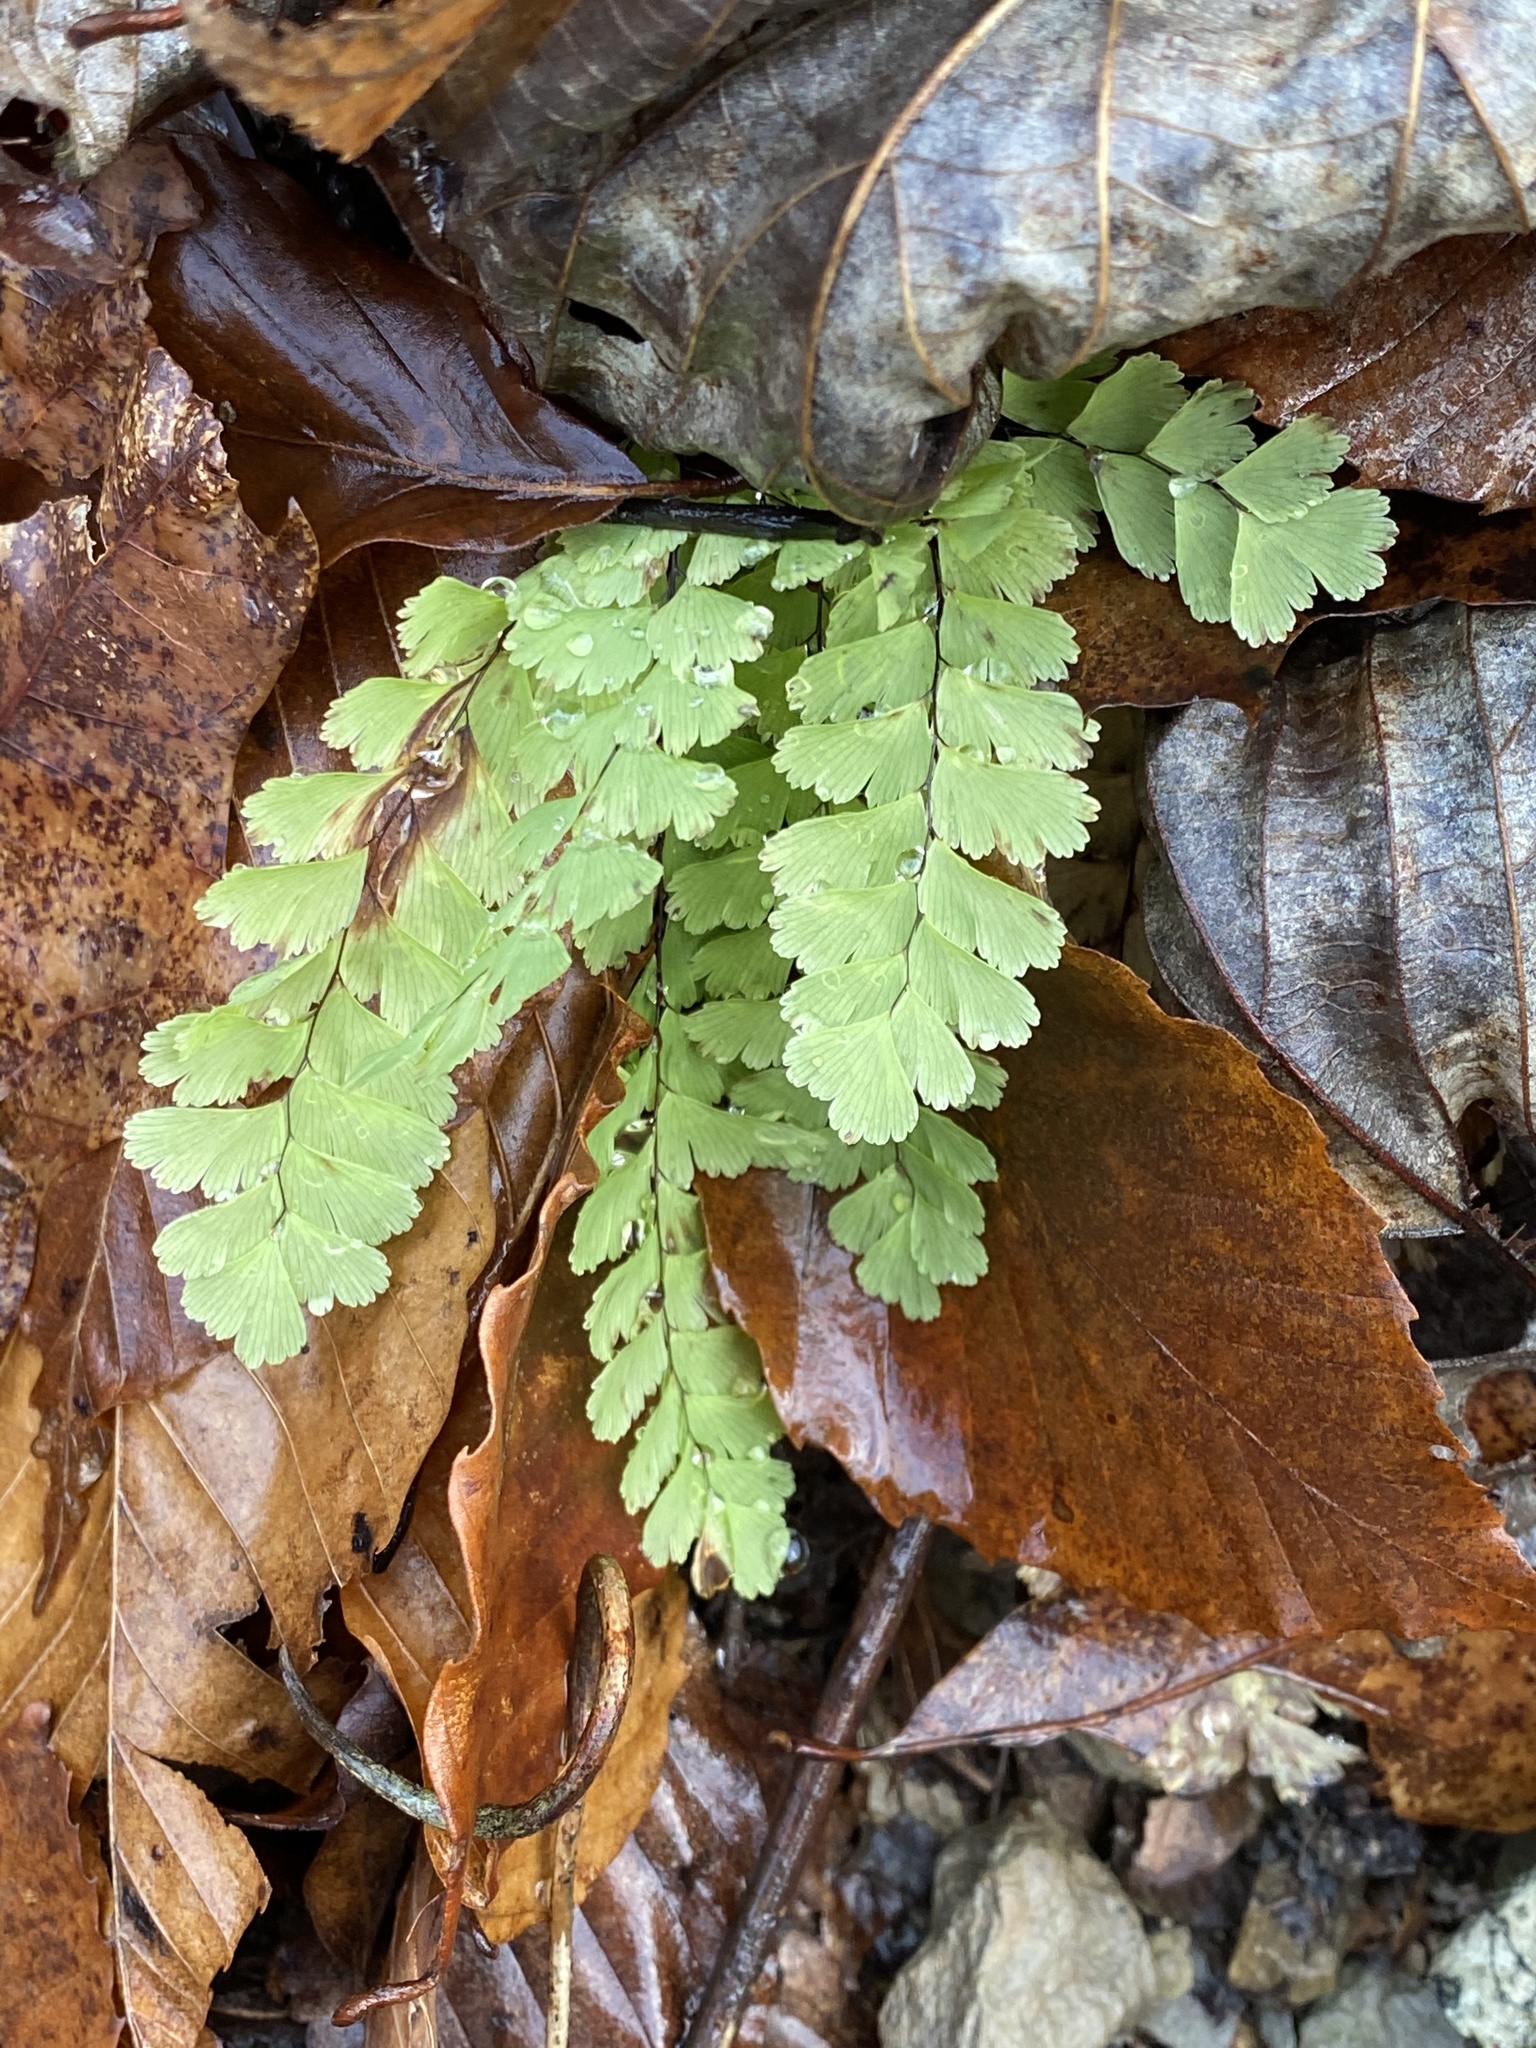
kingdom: Plantae
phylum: Tracheophyta
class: Polypodiopsida
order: Polypodiales
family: Pteridaceae
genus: Adiantum
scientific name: Adiantum pedatum
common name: Five-finger fern
